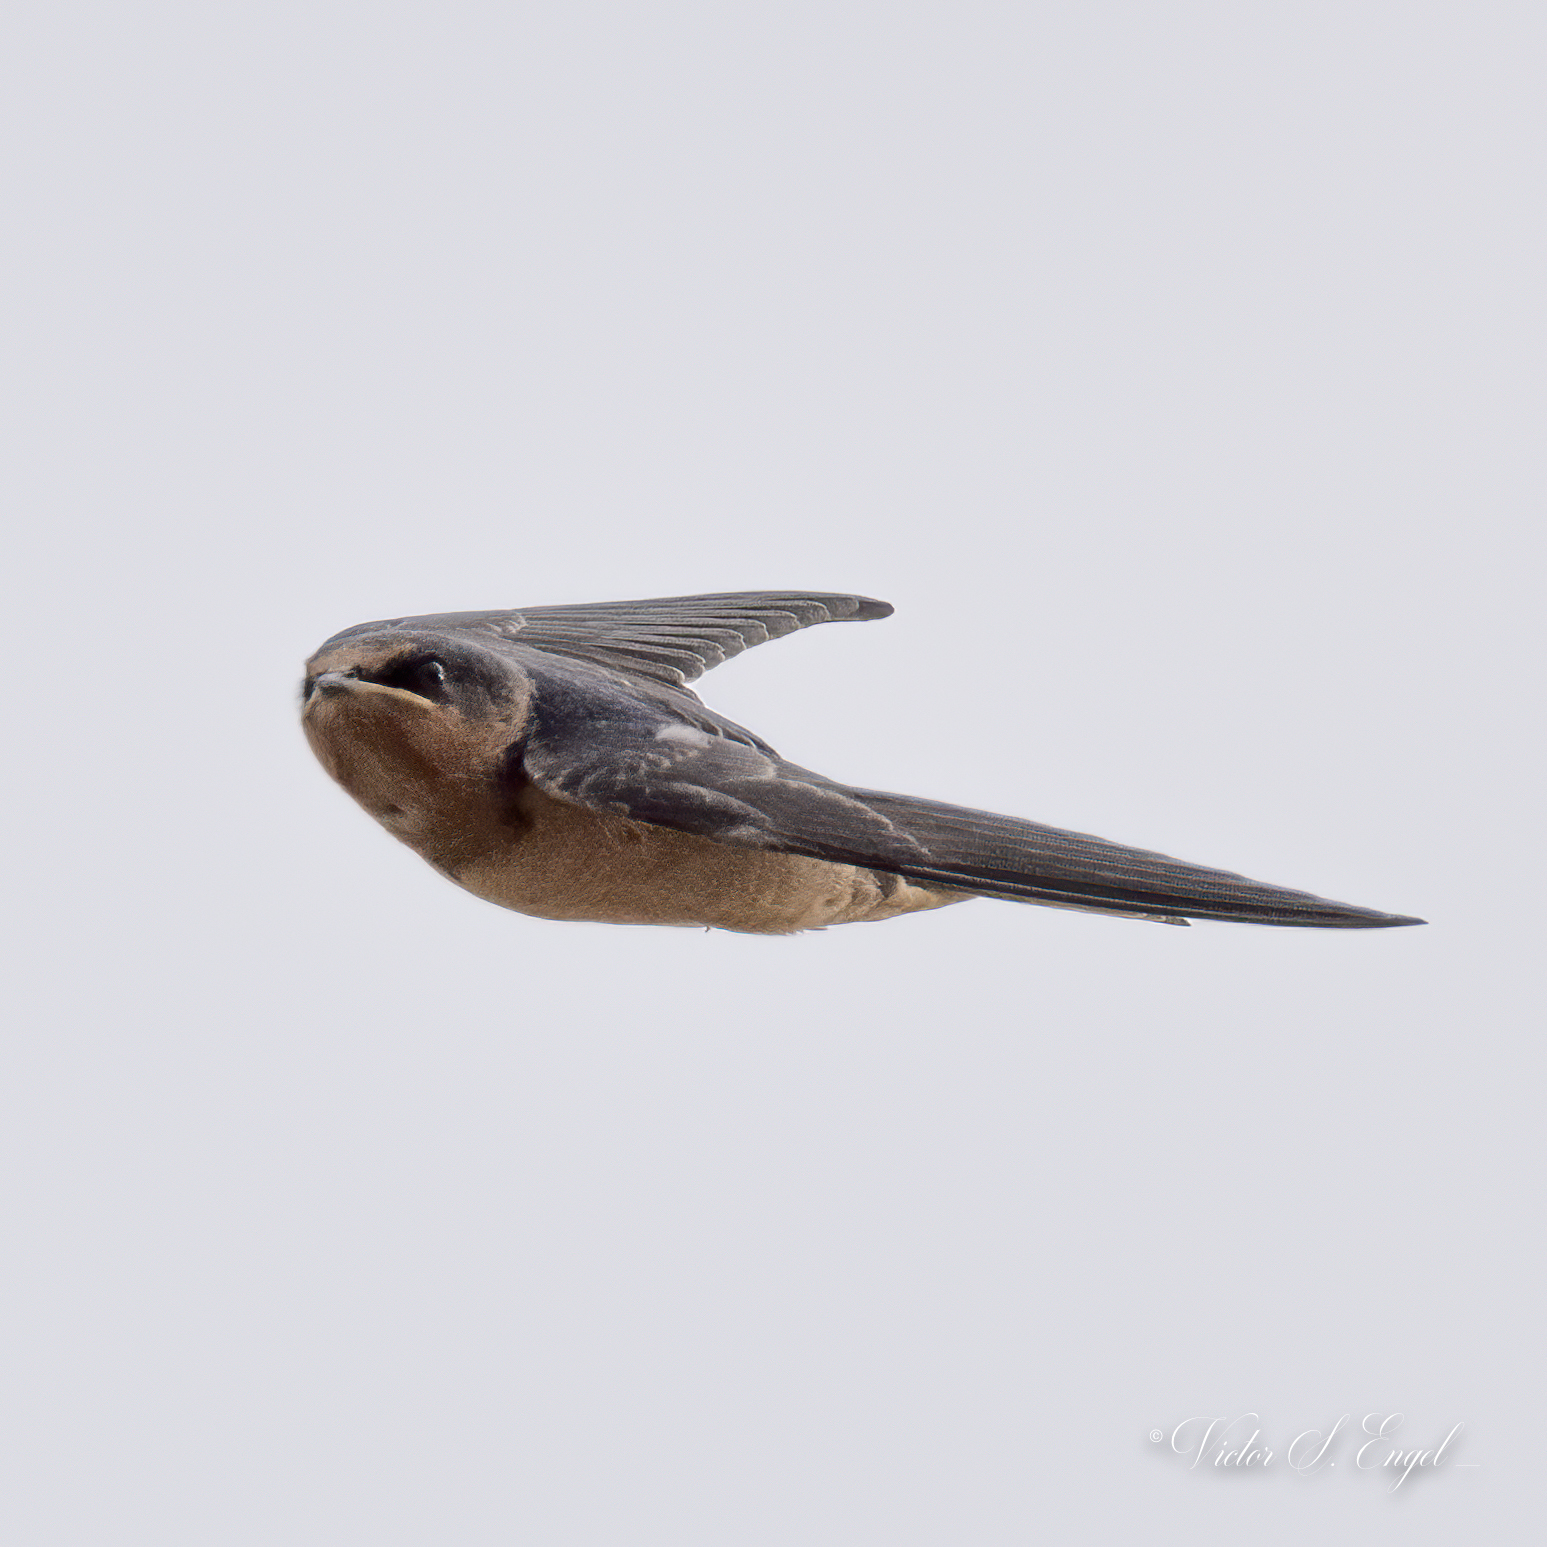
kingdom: Animalia
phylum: Chordata
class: Aves
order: Passeriformes
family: Hirundinidae
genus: Hirundo
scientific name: Hirundo rustica
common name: Barn swallow
